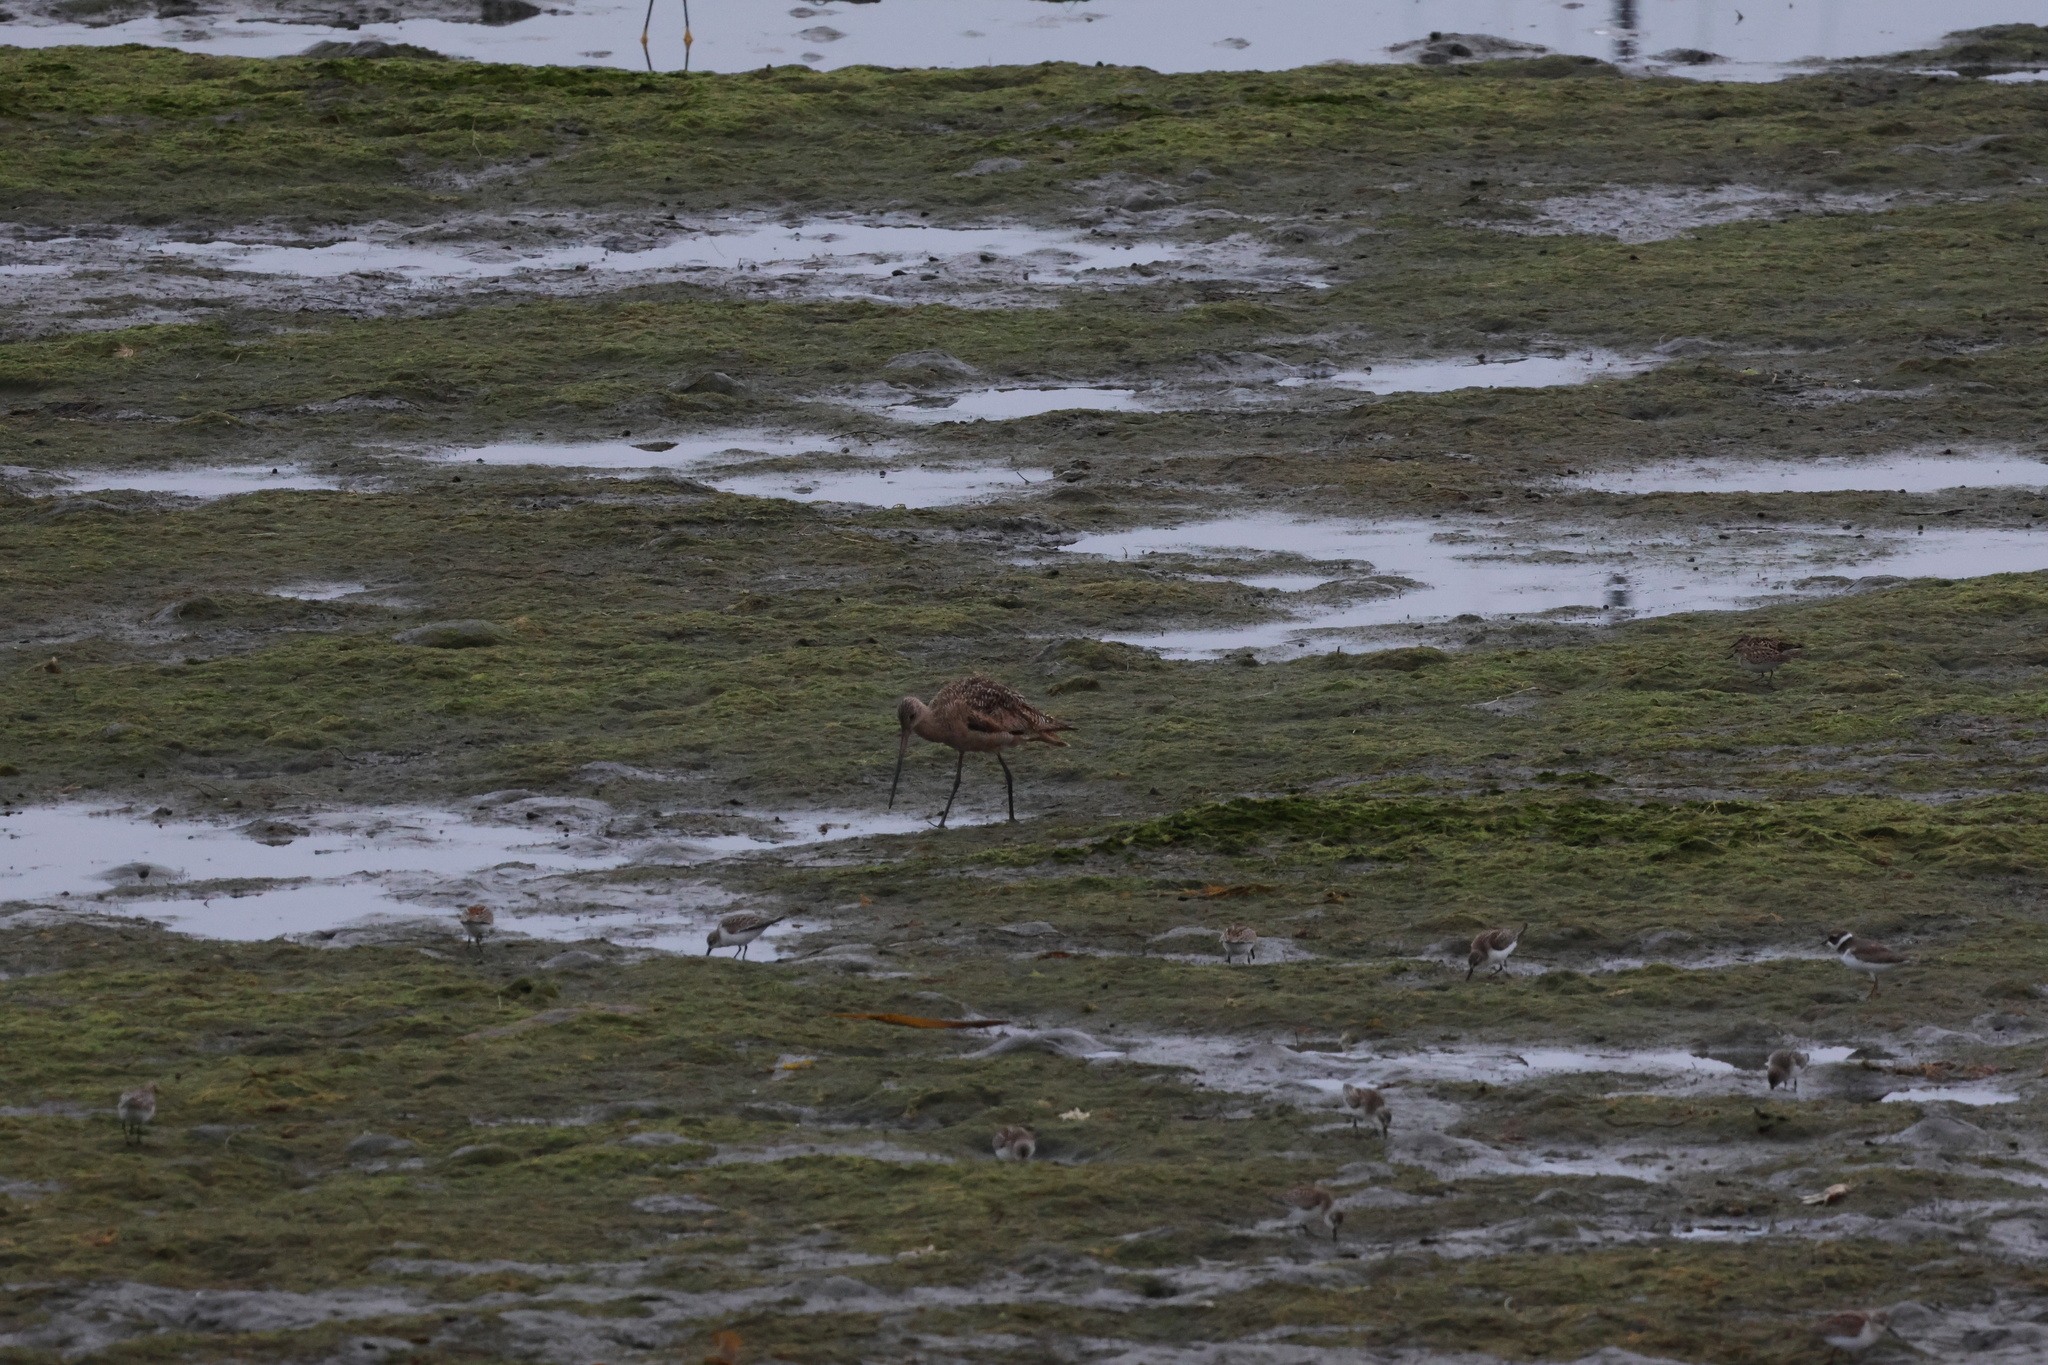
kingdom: Animalia
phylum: Chordata
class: Aves
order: Charadriiformes
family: Scolopacidae
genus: Limosa
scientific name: Limosa fedoa
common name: Marbled godwit
